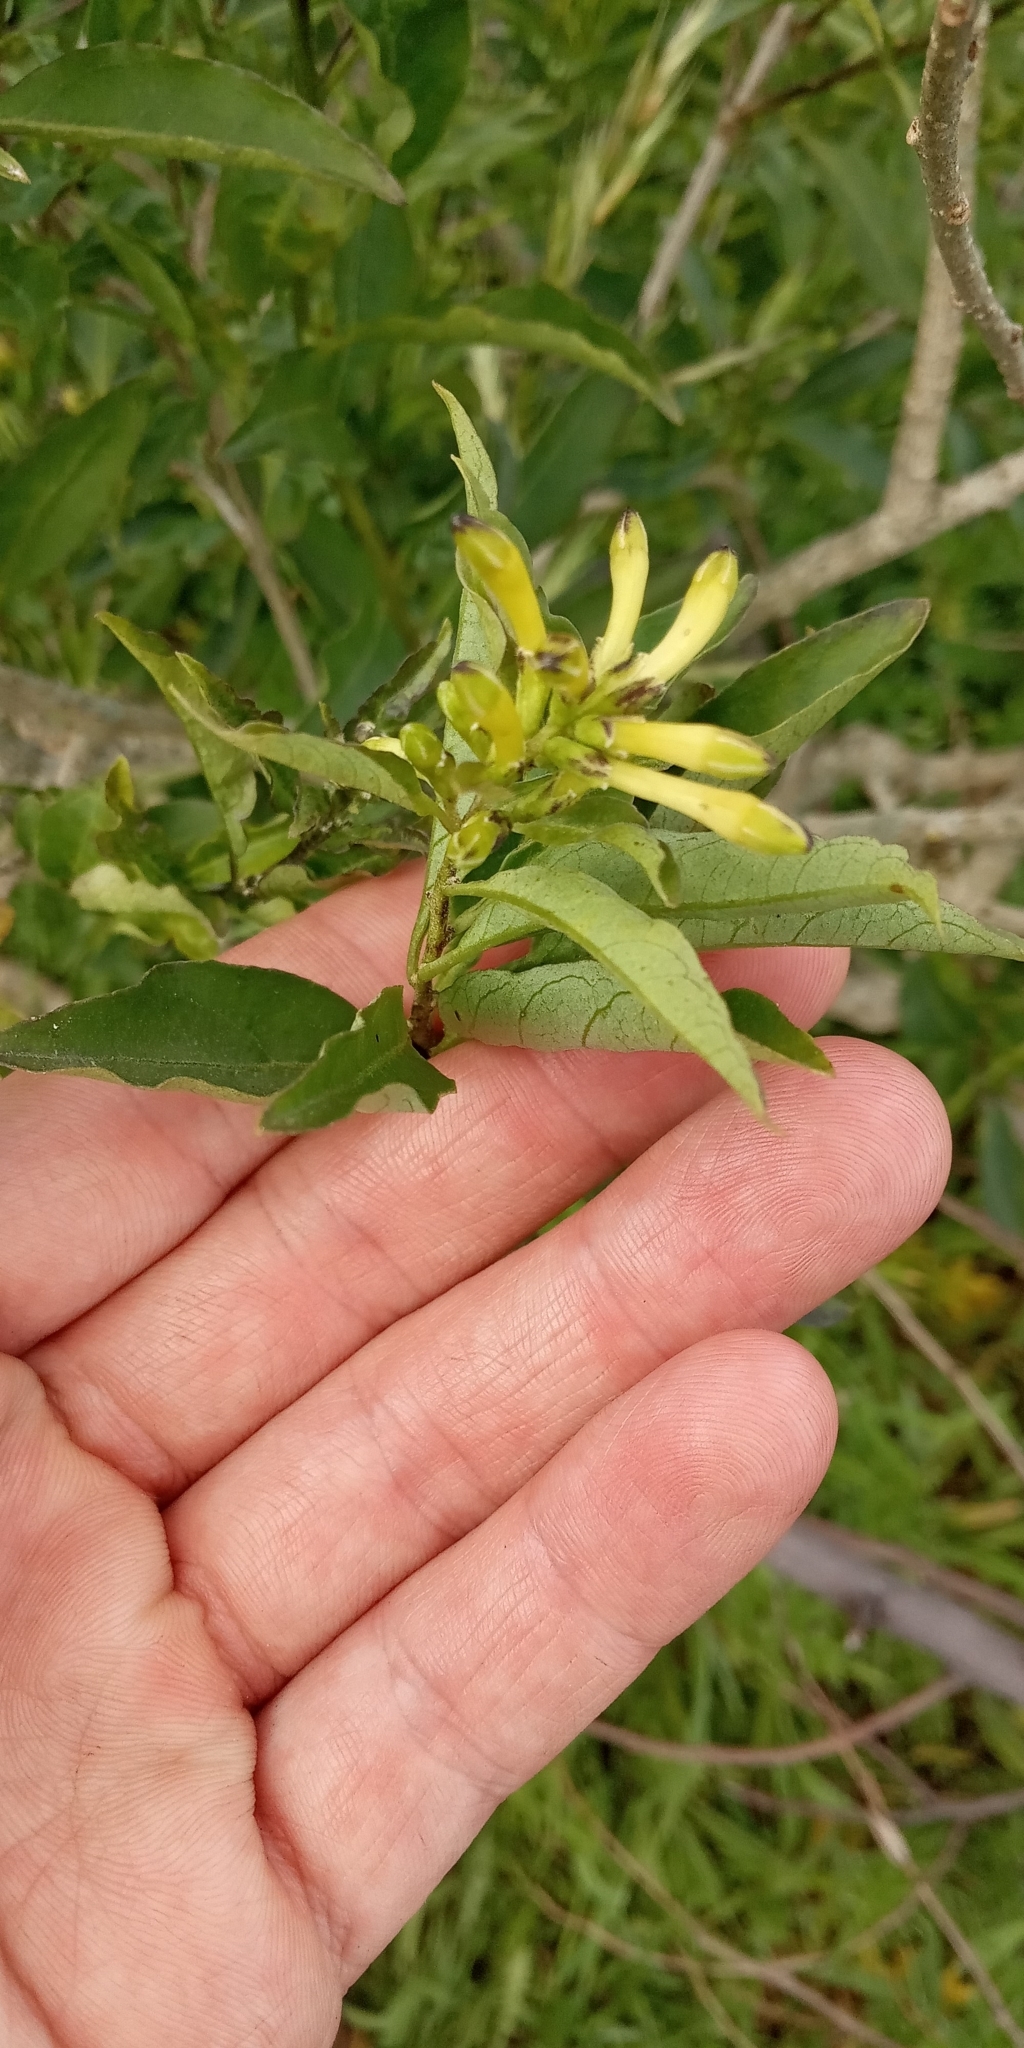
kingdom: Plantae
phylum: Tracheophyta
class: Magnoliopsida
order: Solanales
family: Solanaceae
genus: Cestrum
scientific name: Cestrum parqui
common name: Chilean cestrum
